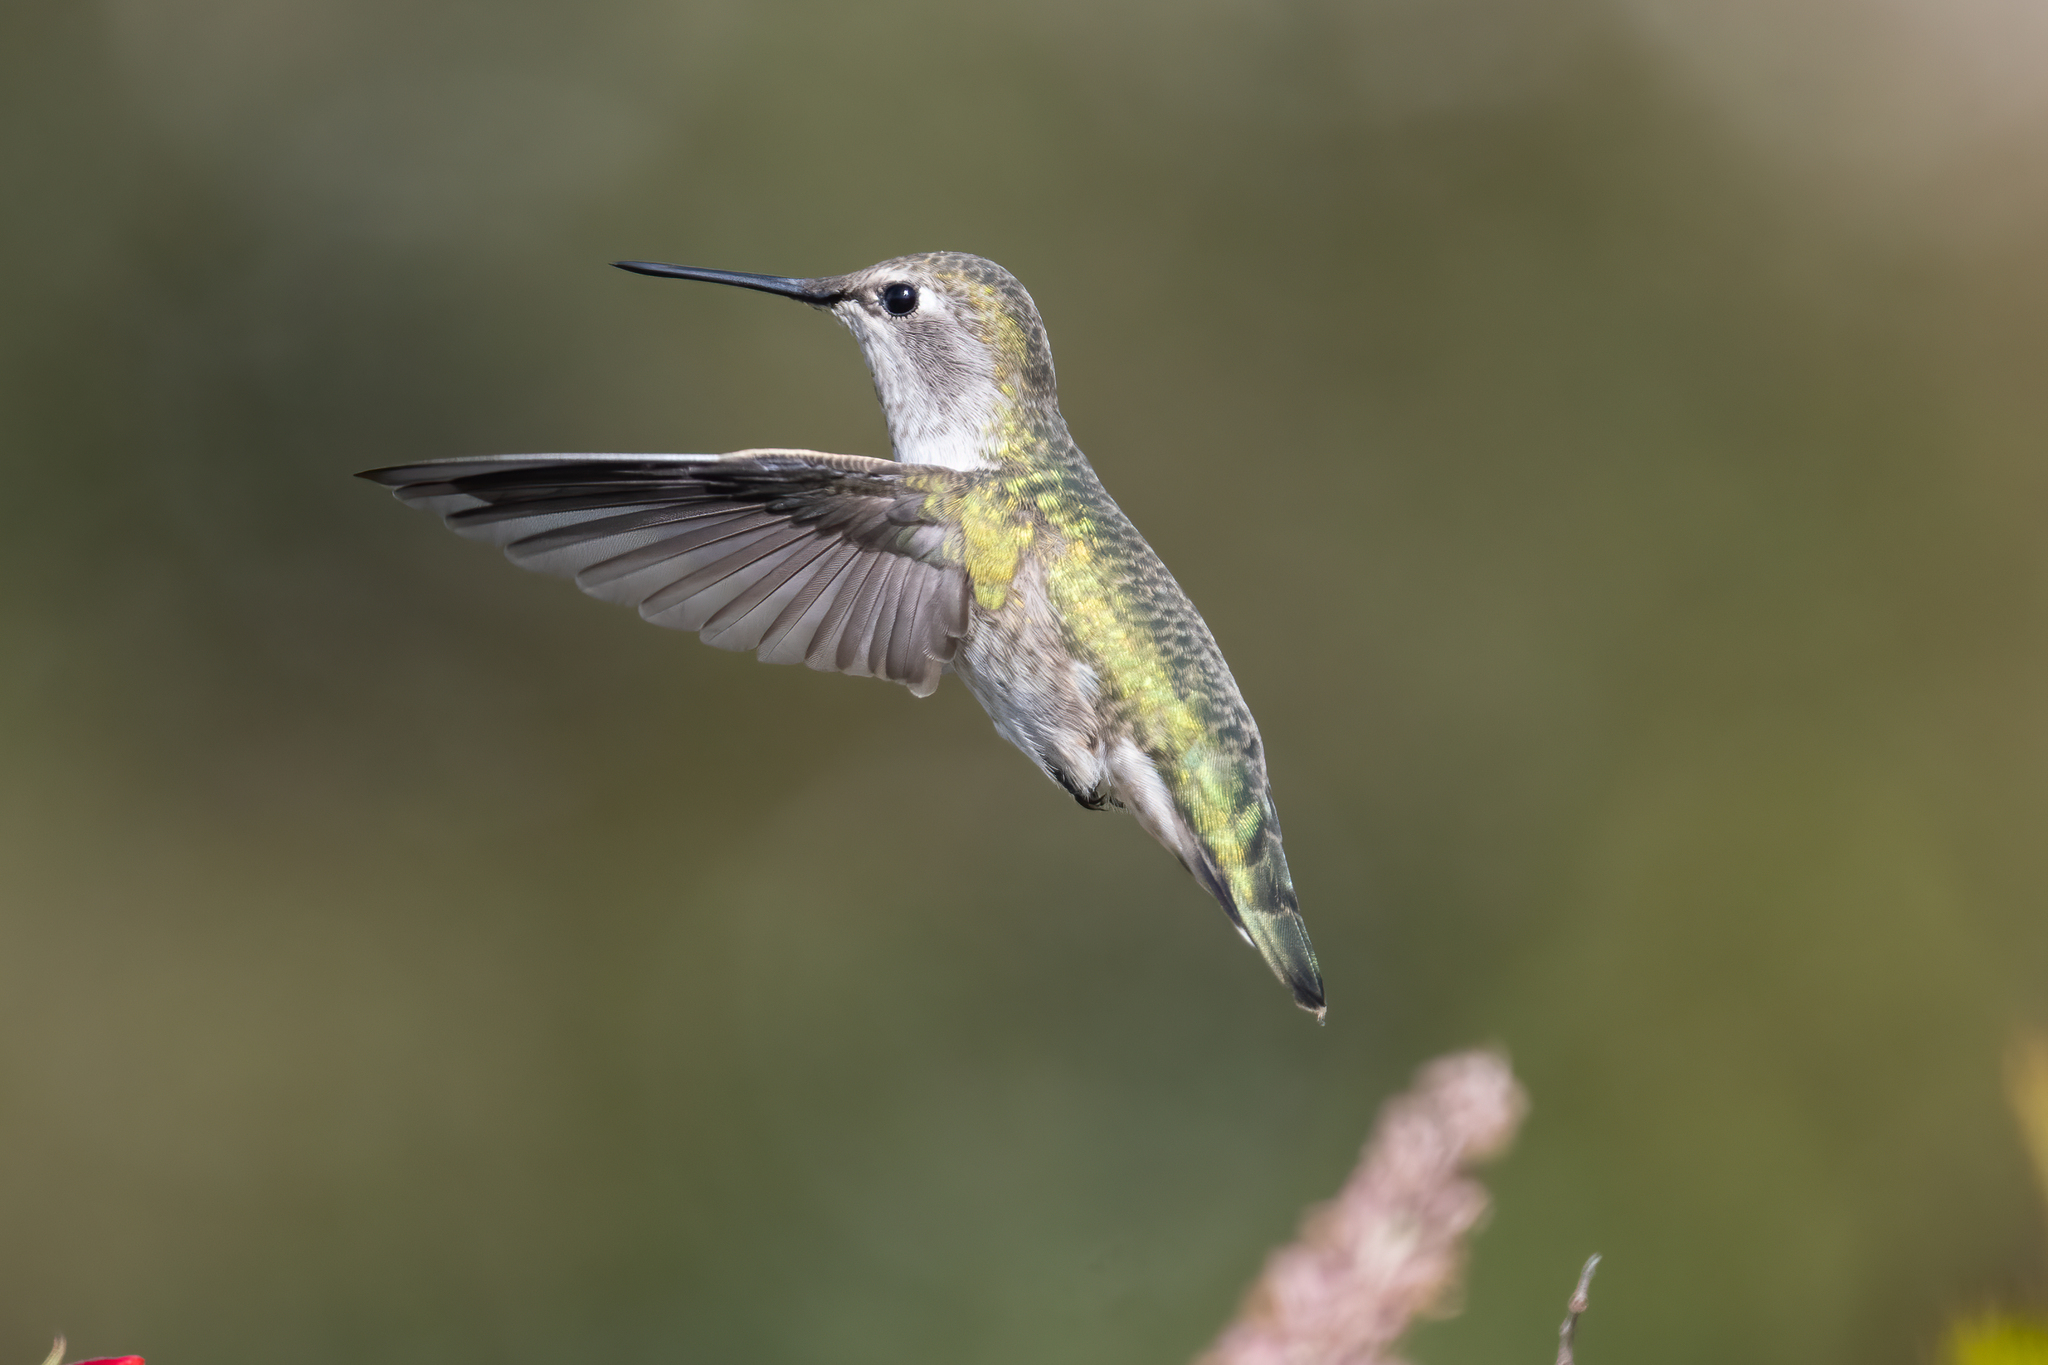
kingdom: Animalia
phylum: Chordata
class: Aves
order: Apodiformes
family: Trochilidae
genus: Calypte
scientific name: Calypte anna
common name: Anna's hummingbird
